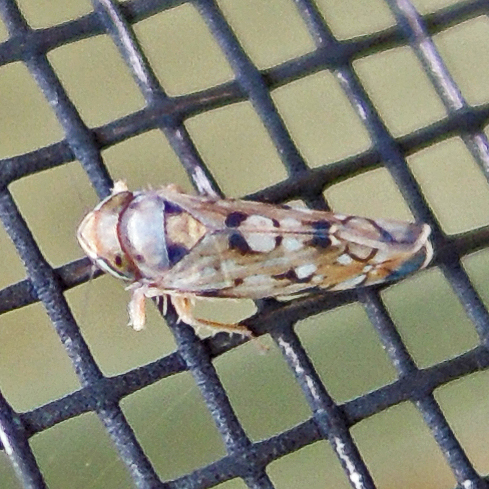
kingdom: Animalia
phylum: Arthropoda
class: Insecta
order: Hemiptera
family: Cicadellidae
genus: Scaphoideus
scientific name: Scaphoideus opalinus
